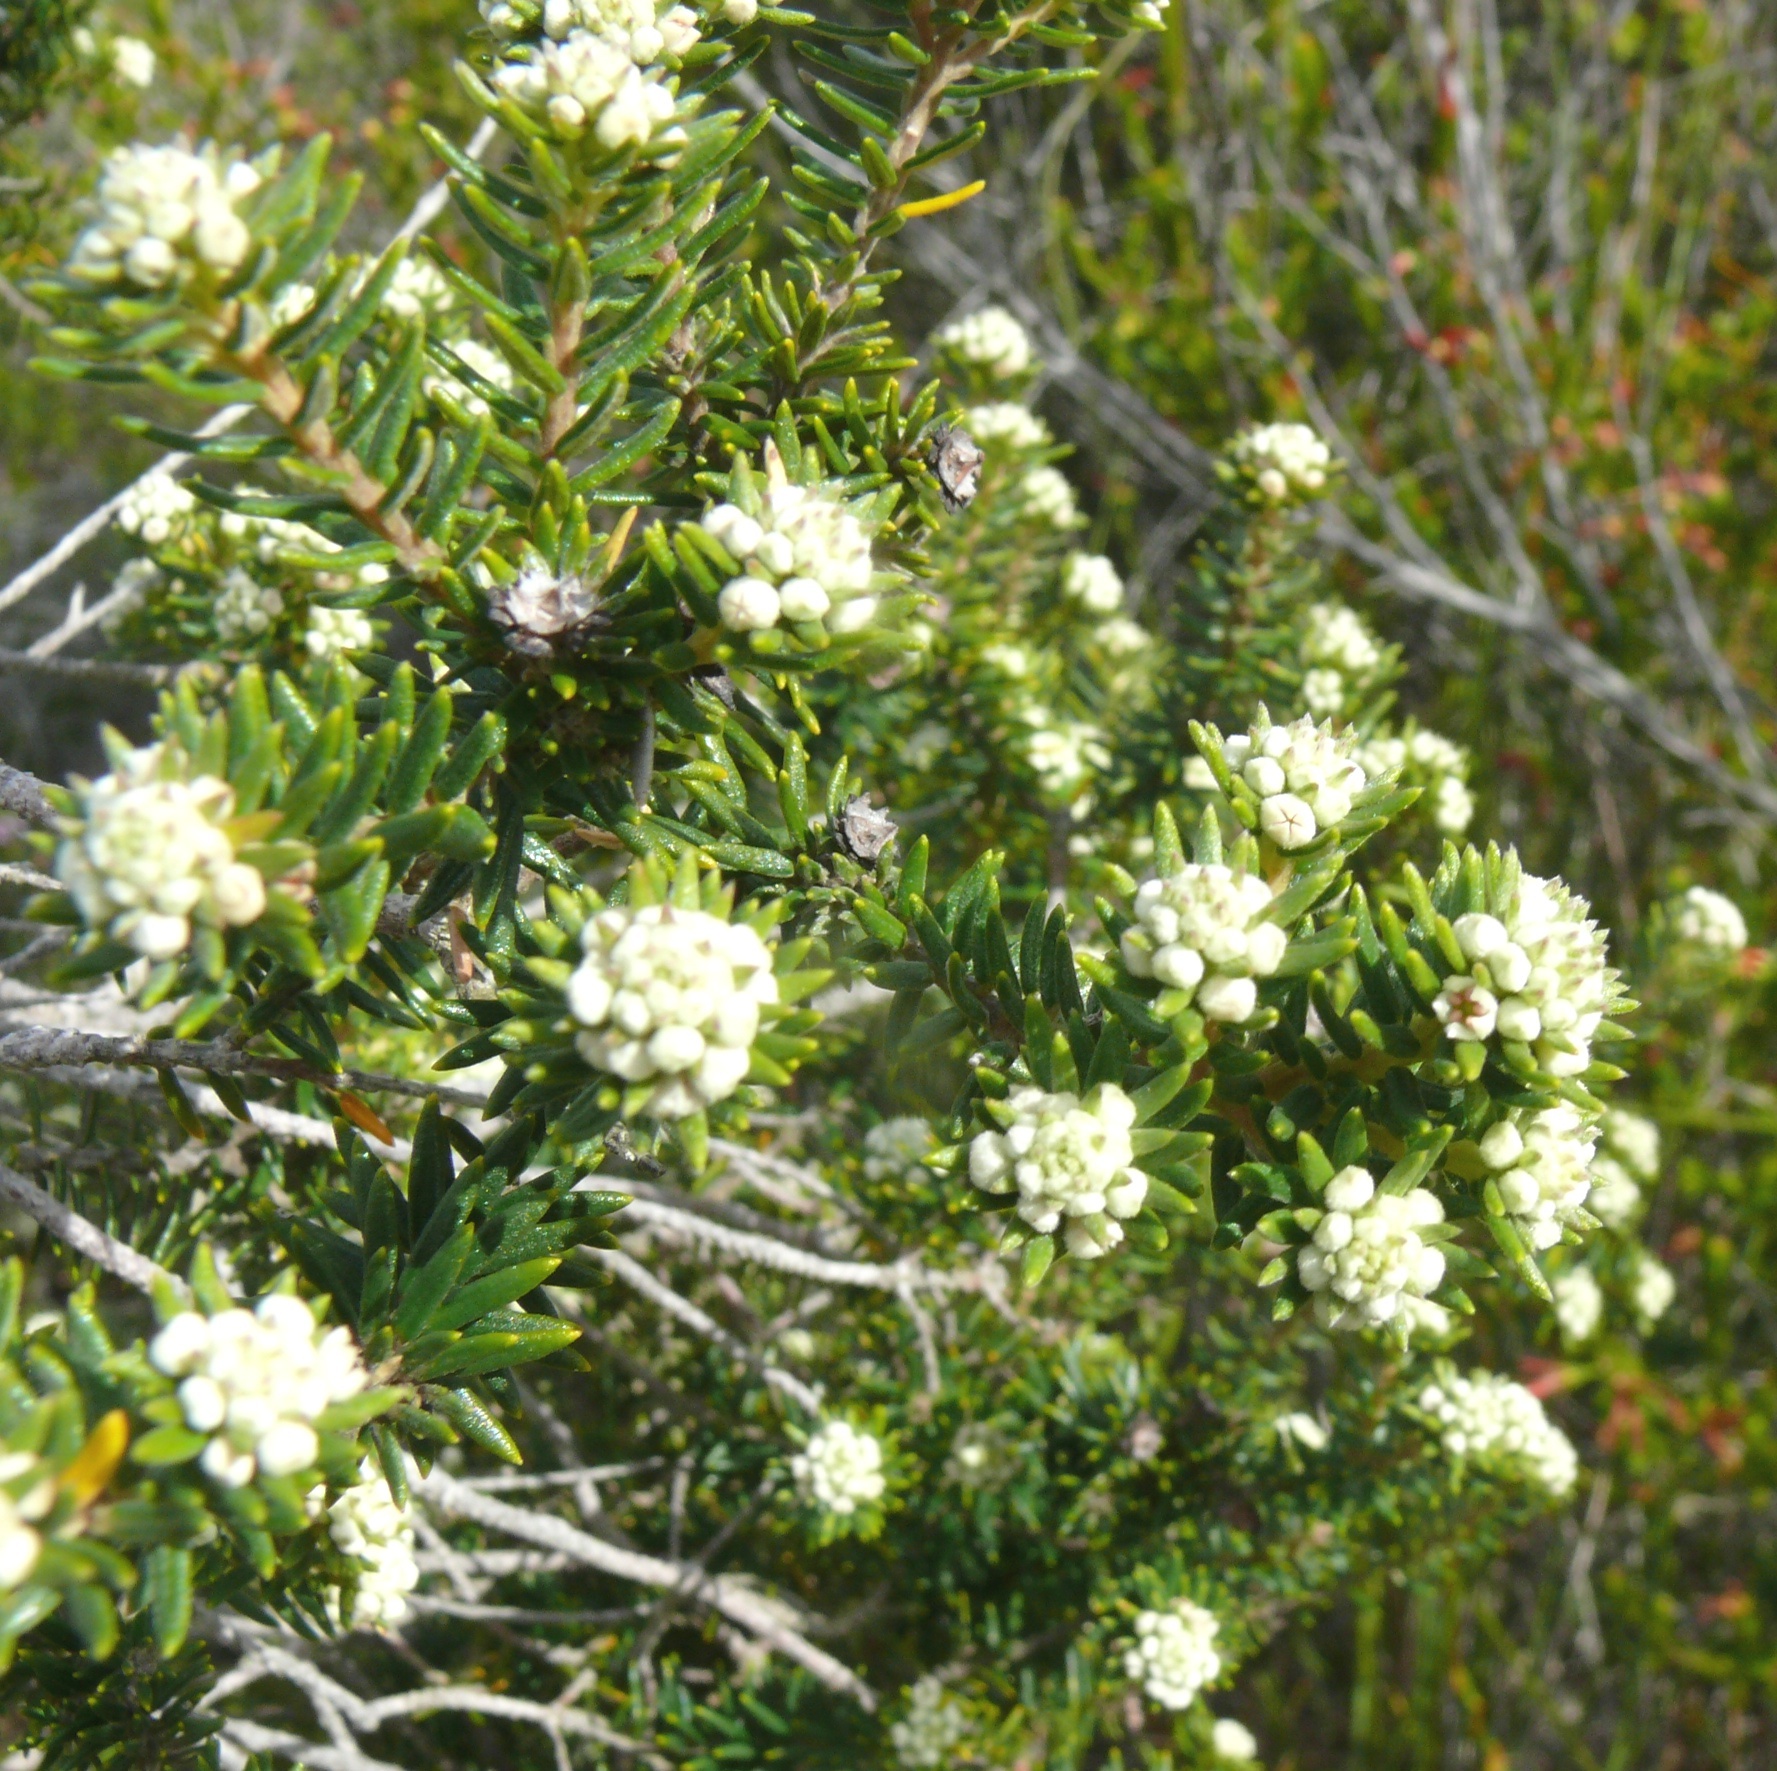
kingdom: Plantae
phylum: Tracheophyta
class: Magnoliopsida
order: Rosales
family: Rhamnaceae
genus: Phylica
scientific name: Phylica axillaris
